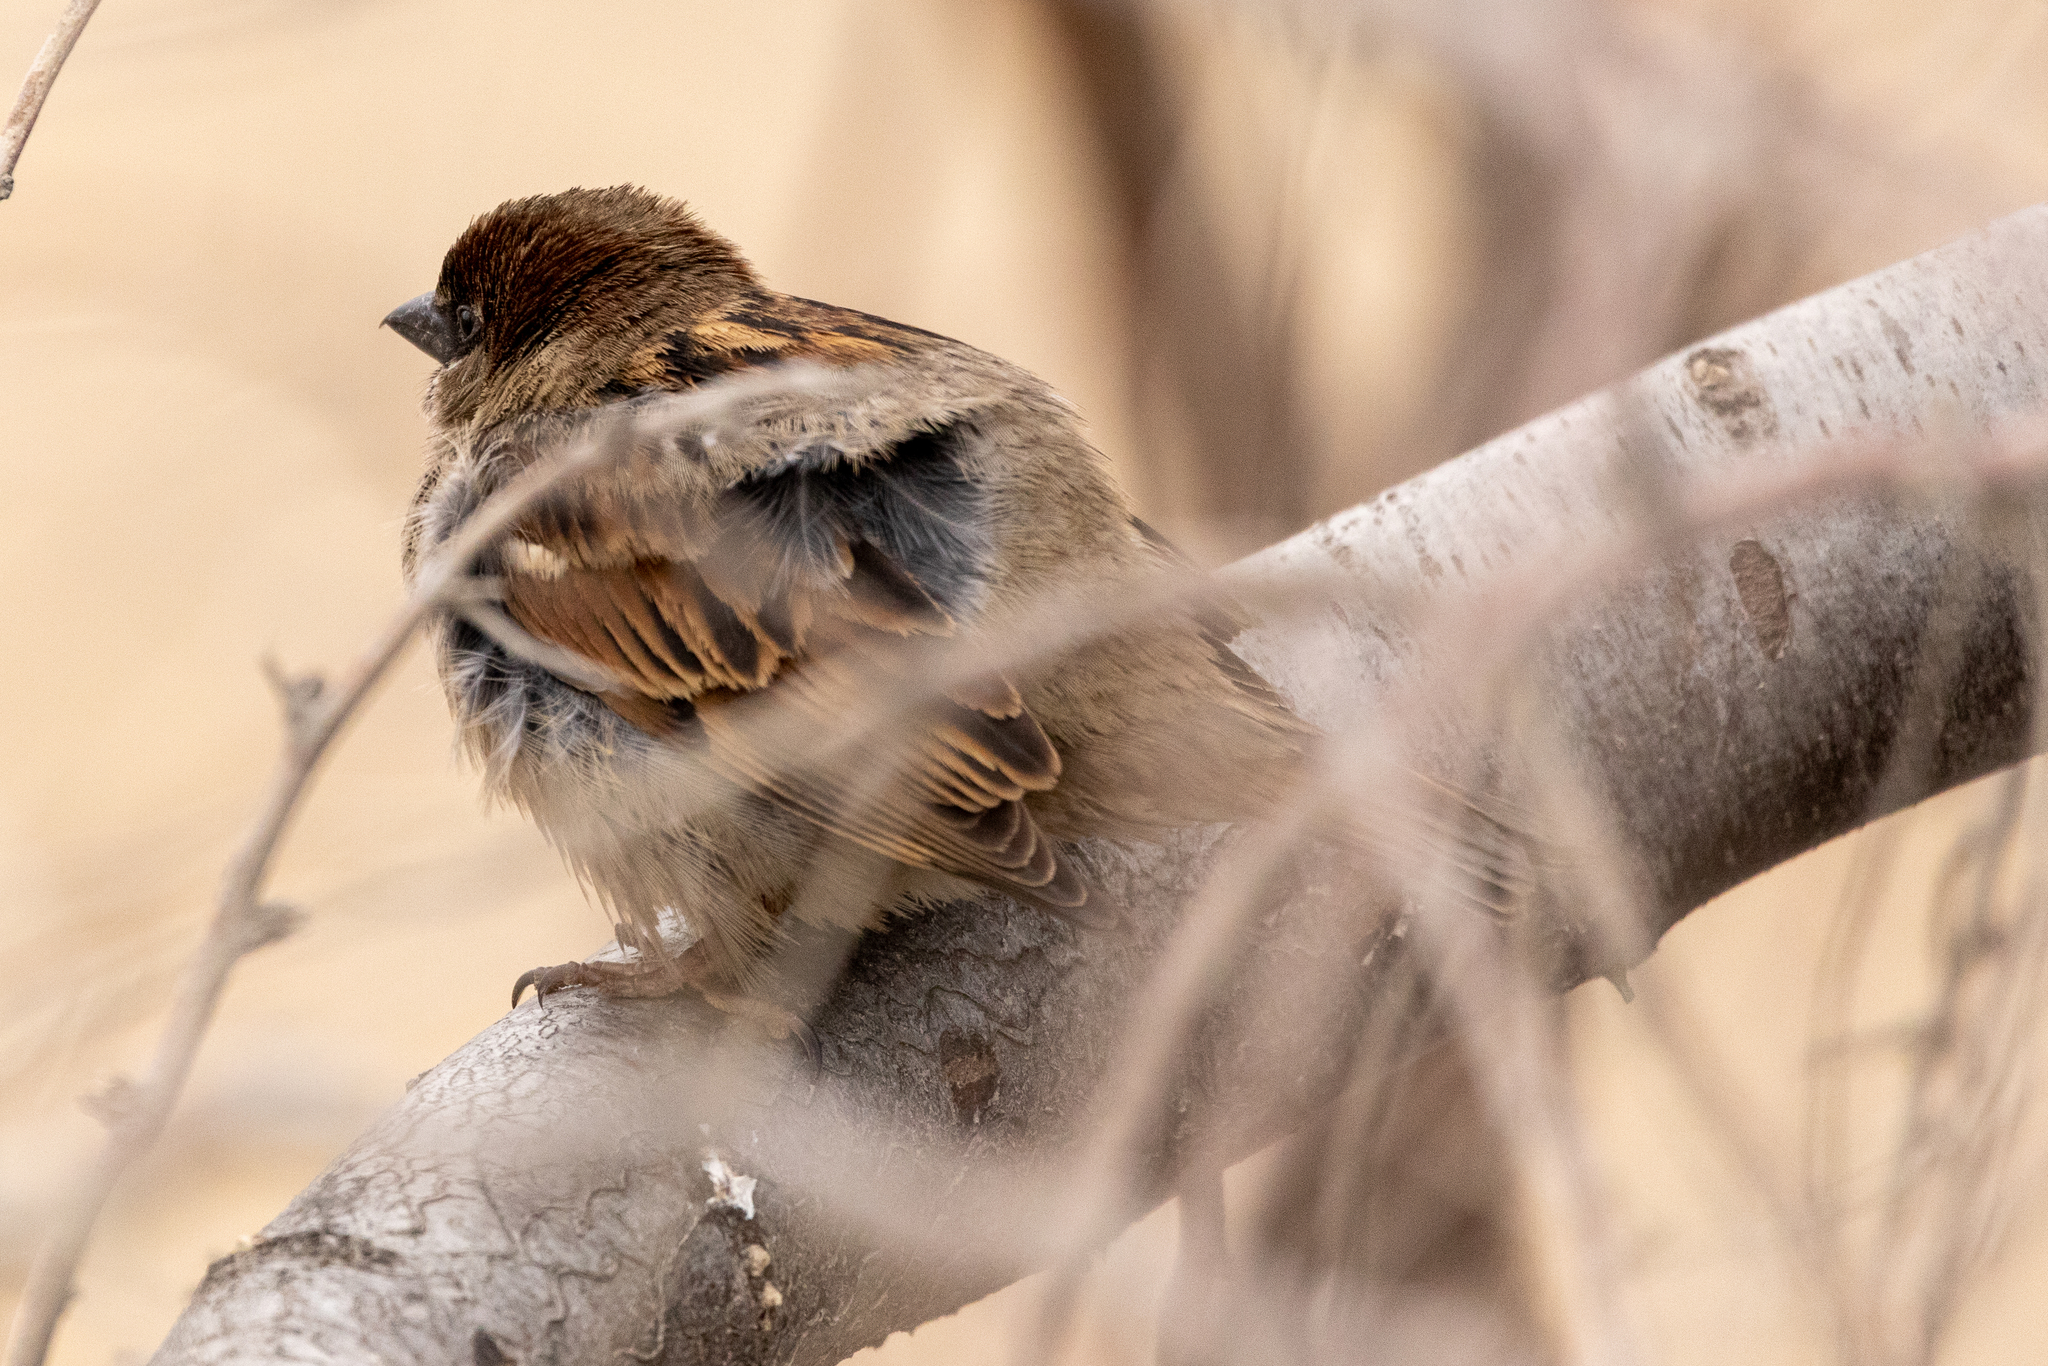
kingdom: Animalia
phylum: Chordata
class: Aves
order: Passeriformes
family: Passeridae
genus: Passer
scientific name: Passer domesticus
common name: House sparrow
